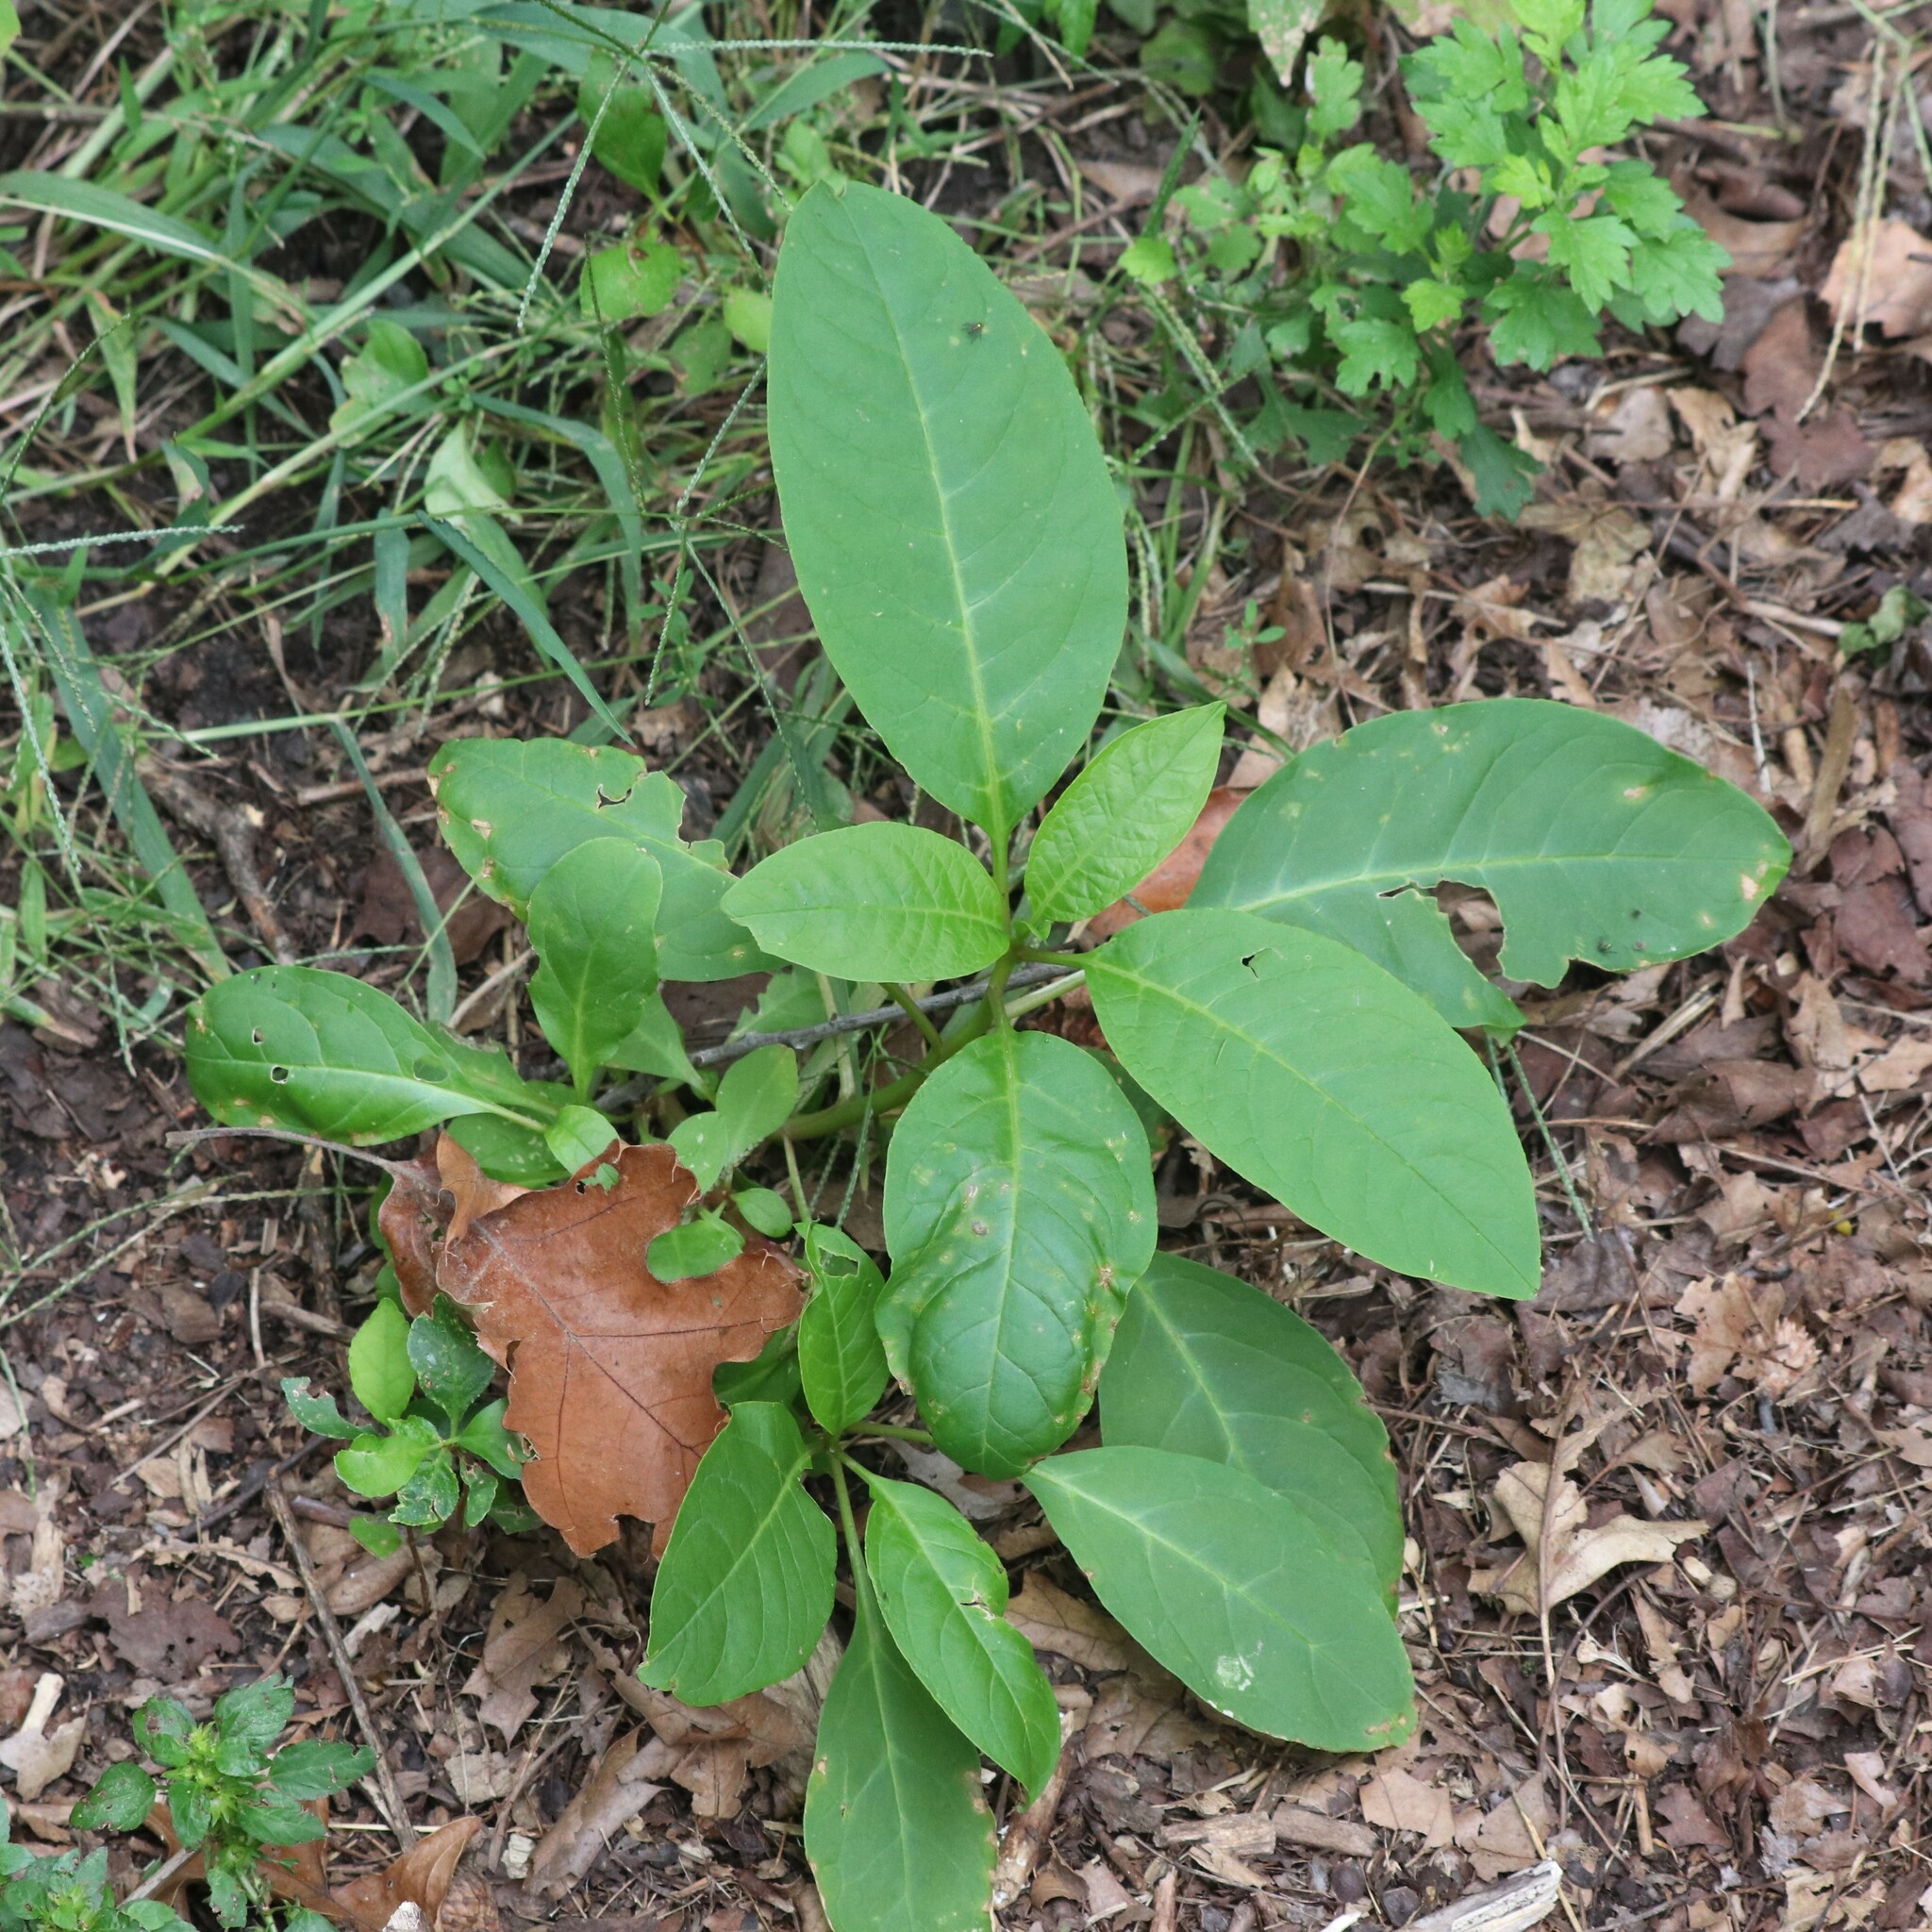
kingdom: Plantae
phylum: Tracheophyta
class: Magnoliopsida
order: Caryophyllales
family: Phytolaccaceae
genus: Phytolacca
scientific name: Phytolacca americana
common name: American pokeweed
